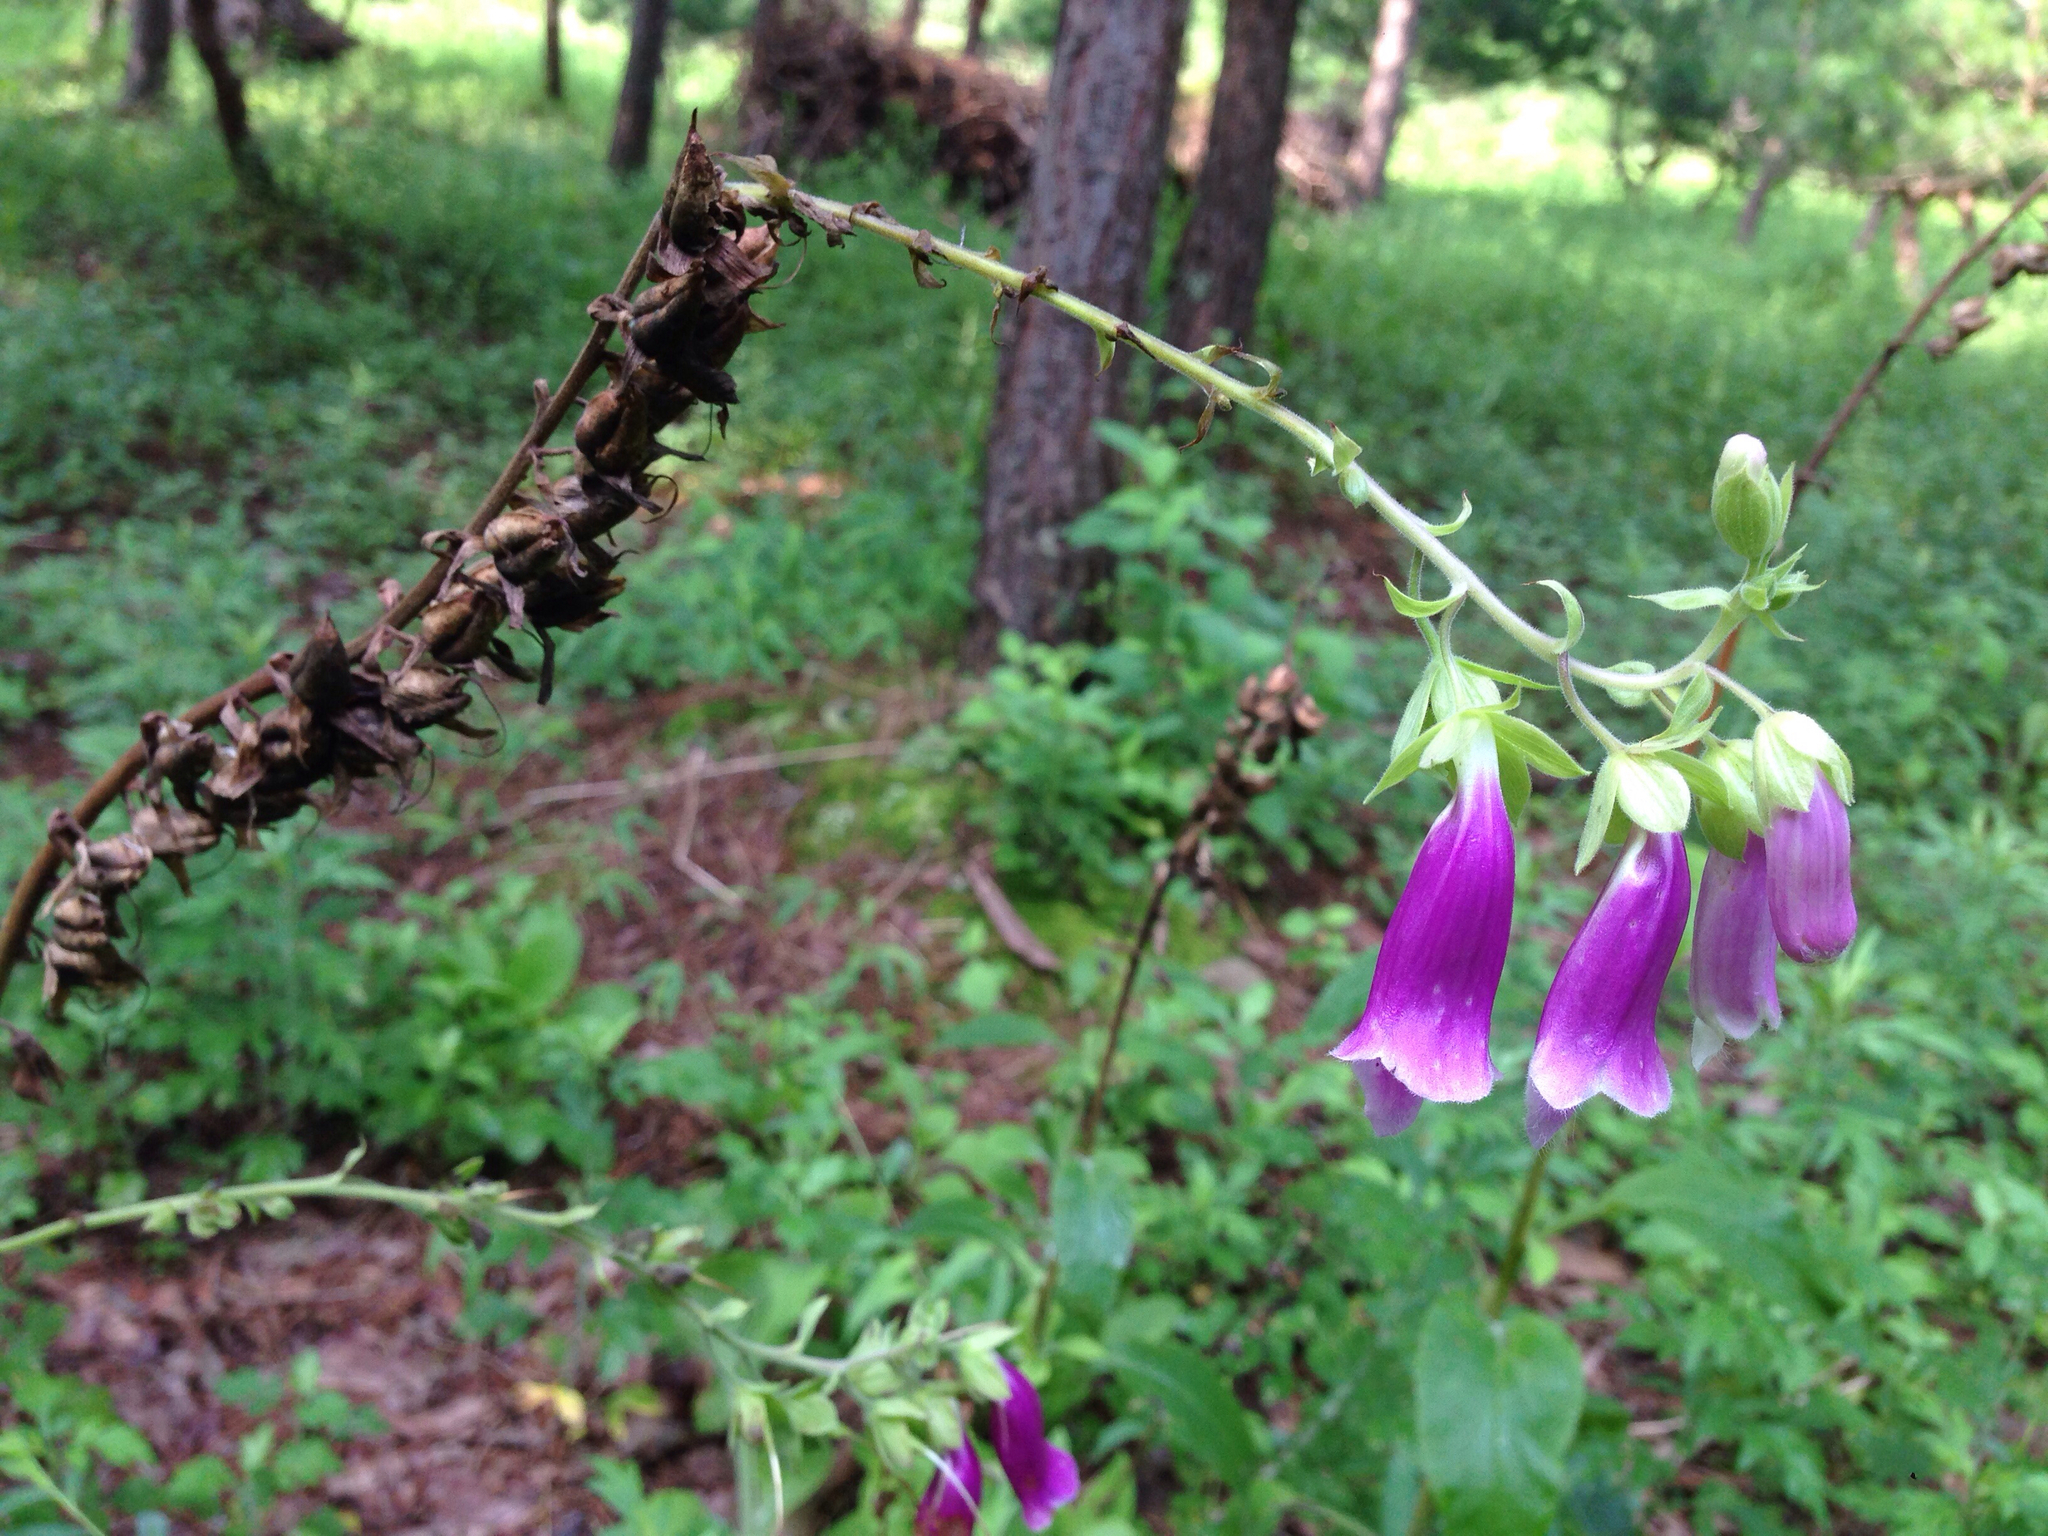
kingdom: Plantae
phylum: Tracheophyta
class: Magnoliopsida
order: Lamiales
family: Plantaginaceae
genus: Digitalis
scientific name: Digitalis purpurea
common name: Foxglove
